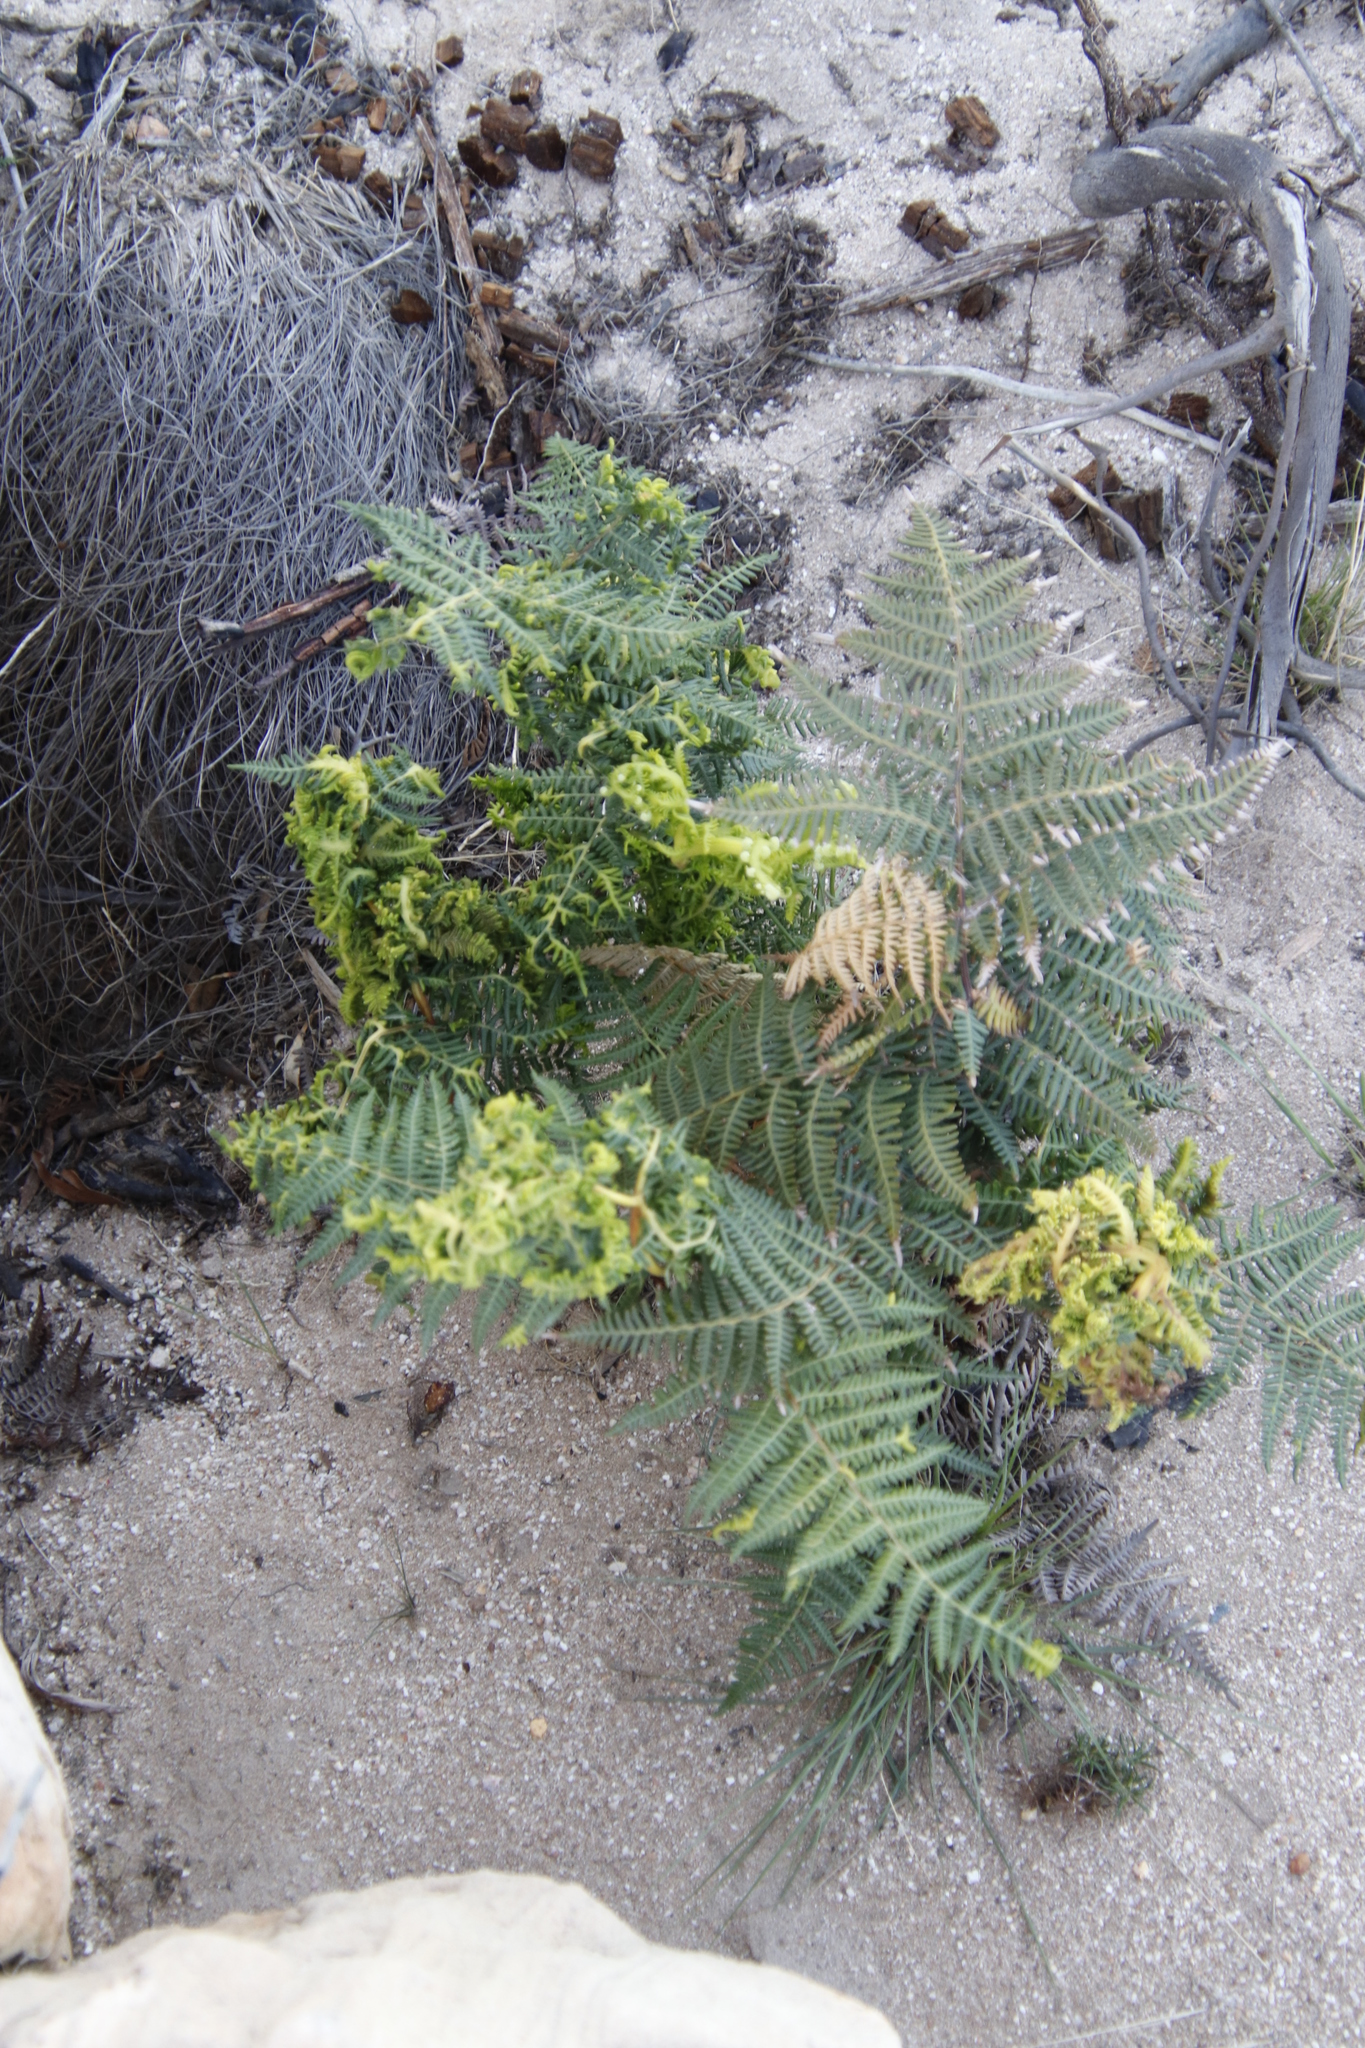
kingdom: Plantae
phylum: Tracheophyta
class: Polypodiopsida
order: Polypodiales
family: Dennstaedtiaceae
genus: Pteridium
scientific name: Pteridium aquilinum
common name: Bracken
